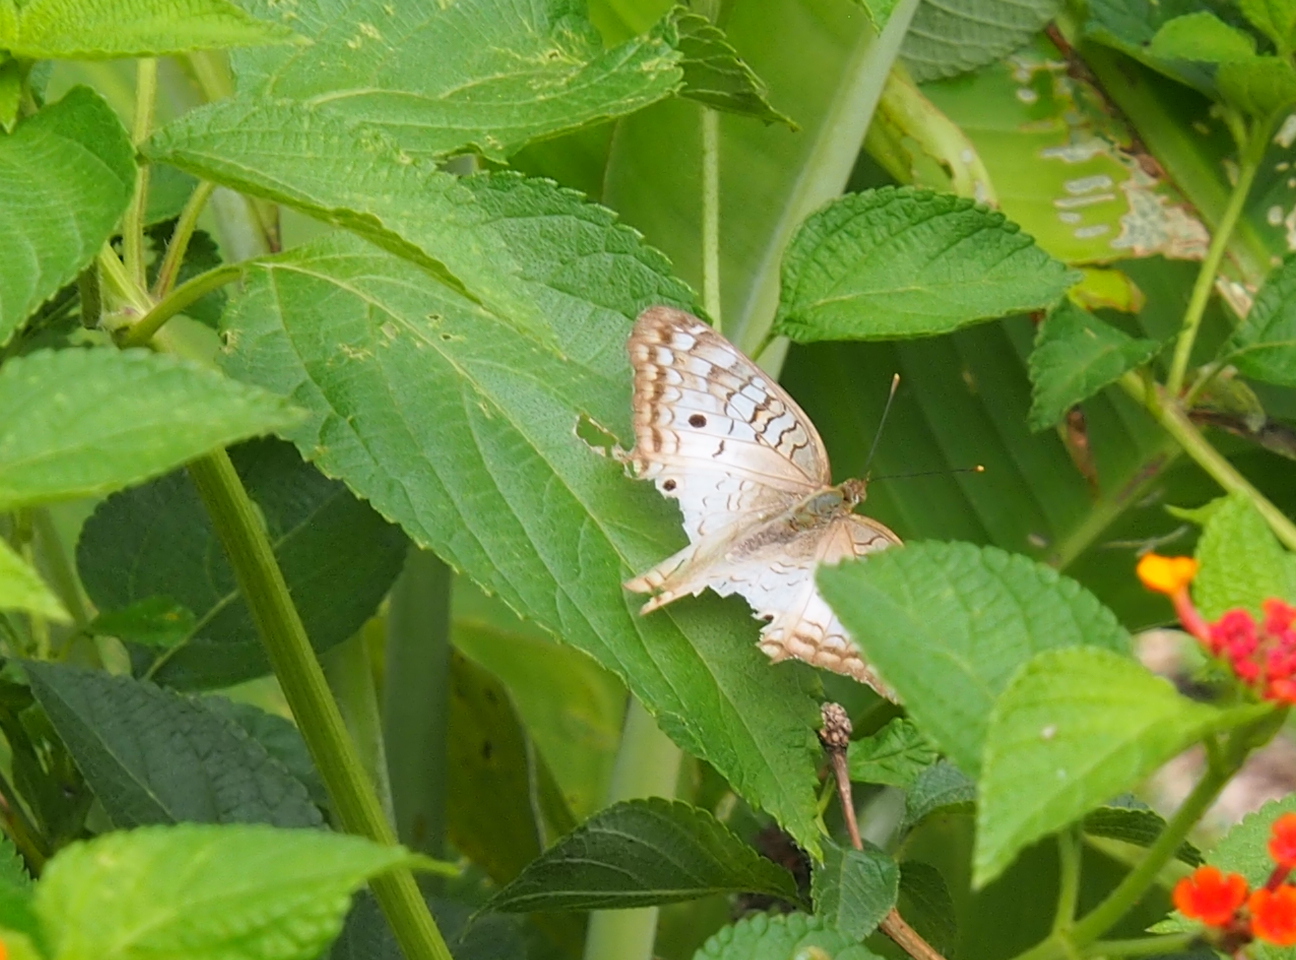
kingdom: Animalia
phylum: Arthropoda
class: Insecta
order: Lepidoptera
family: Nymphalidae
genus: Anartia
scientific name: Anartia jatrophae
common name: White peacock
